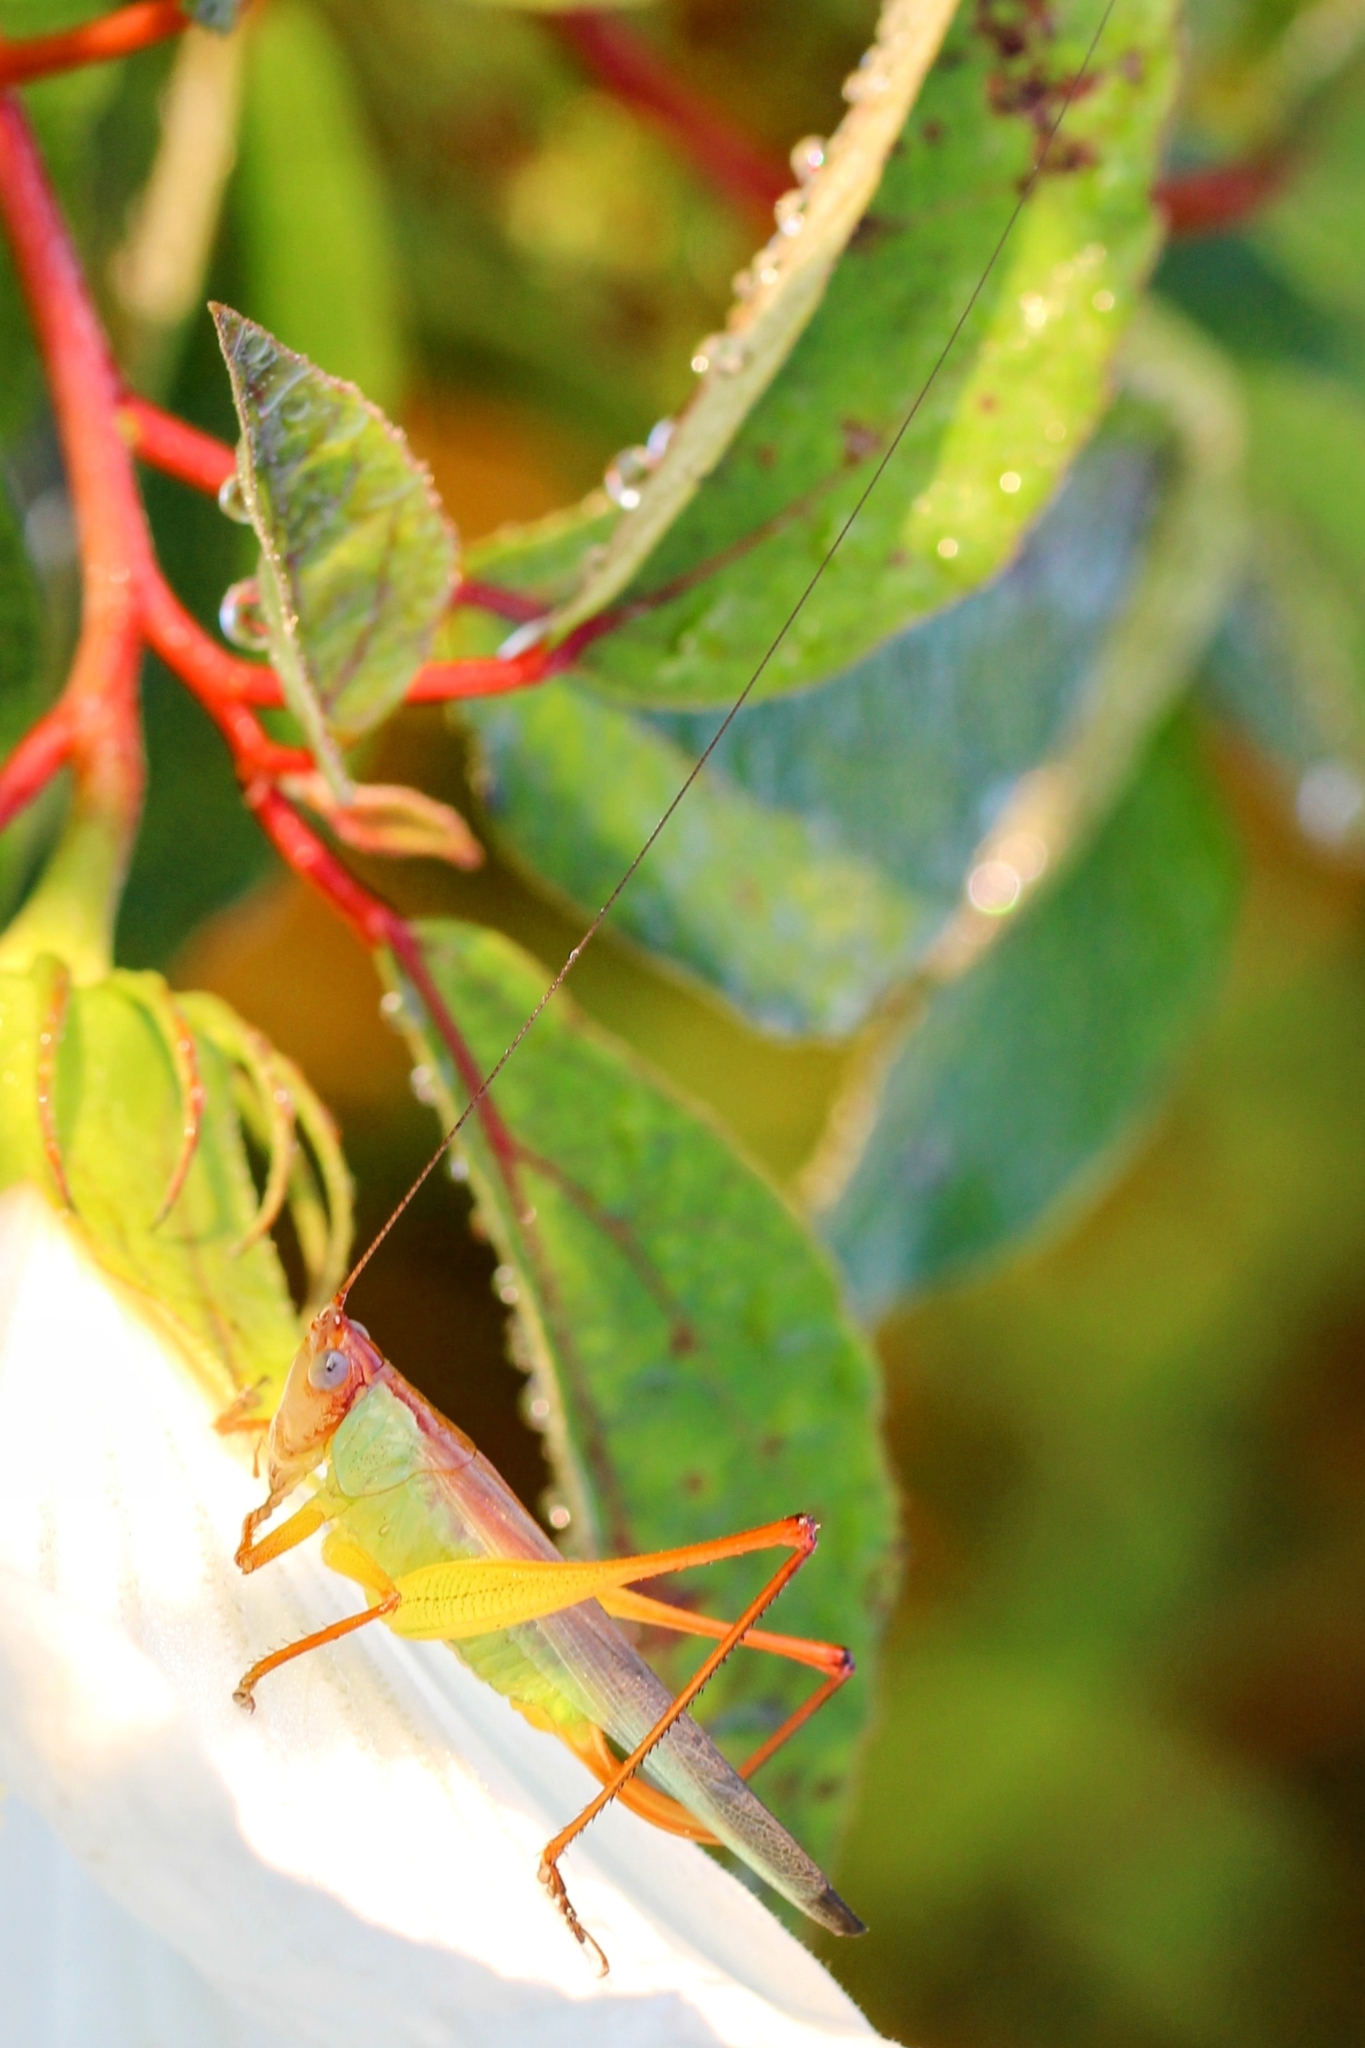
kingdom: Animalia
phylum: Arthropoda
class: Insecta
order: Orthoptera
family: Tettigoniidae
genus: Orchelimum
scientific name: Orchelimum pulchellum
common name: Handsome meadow katydid
